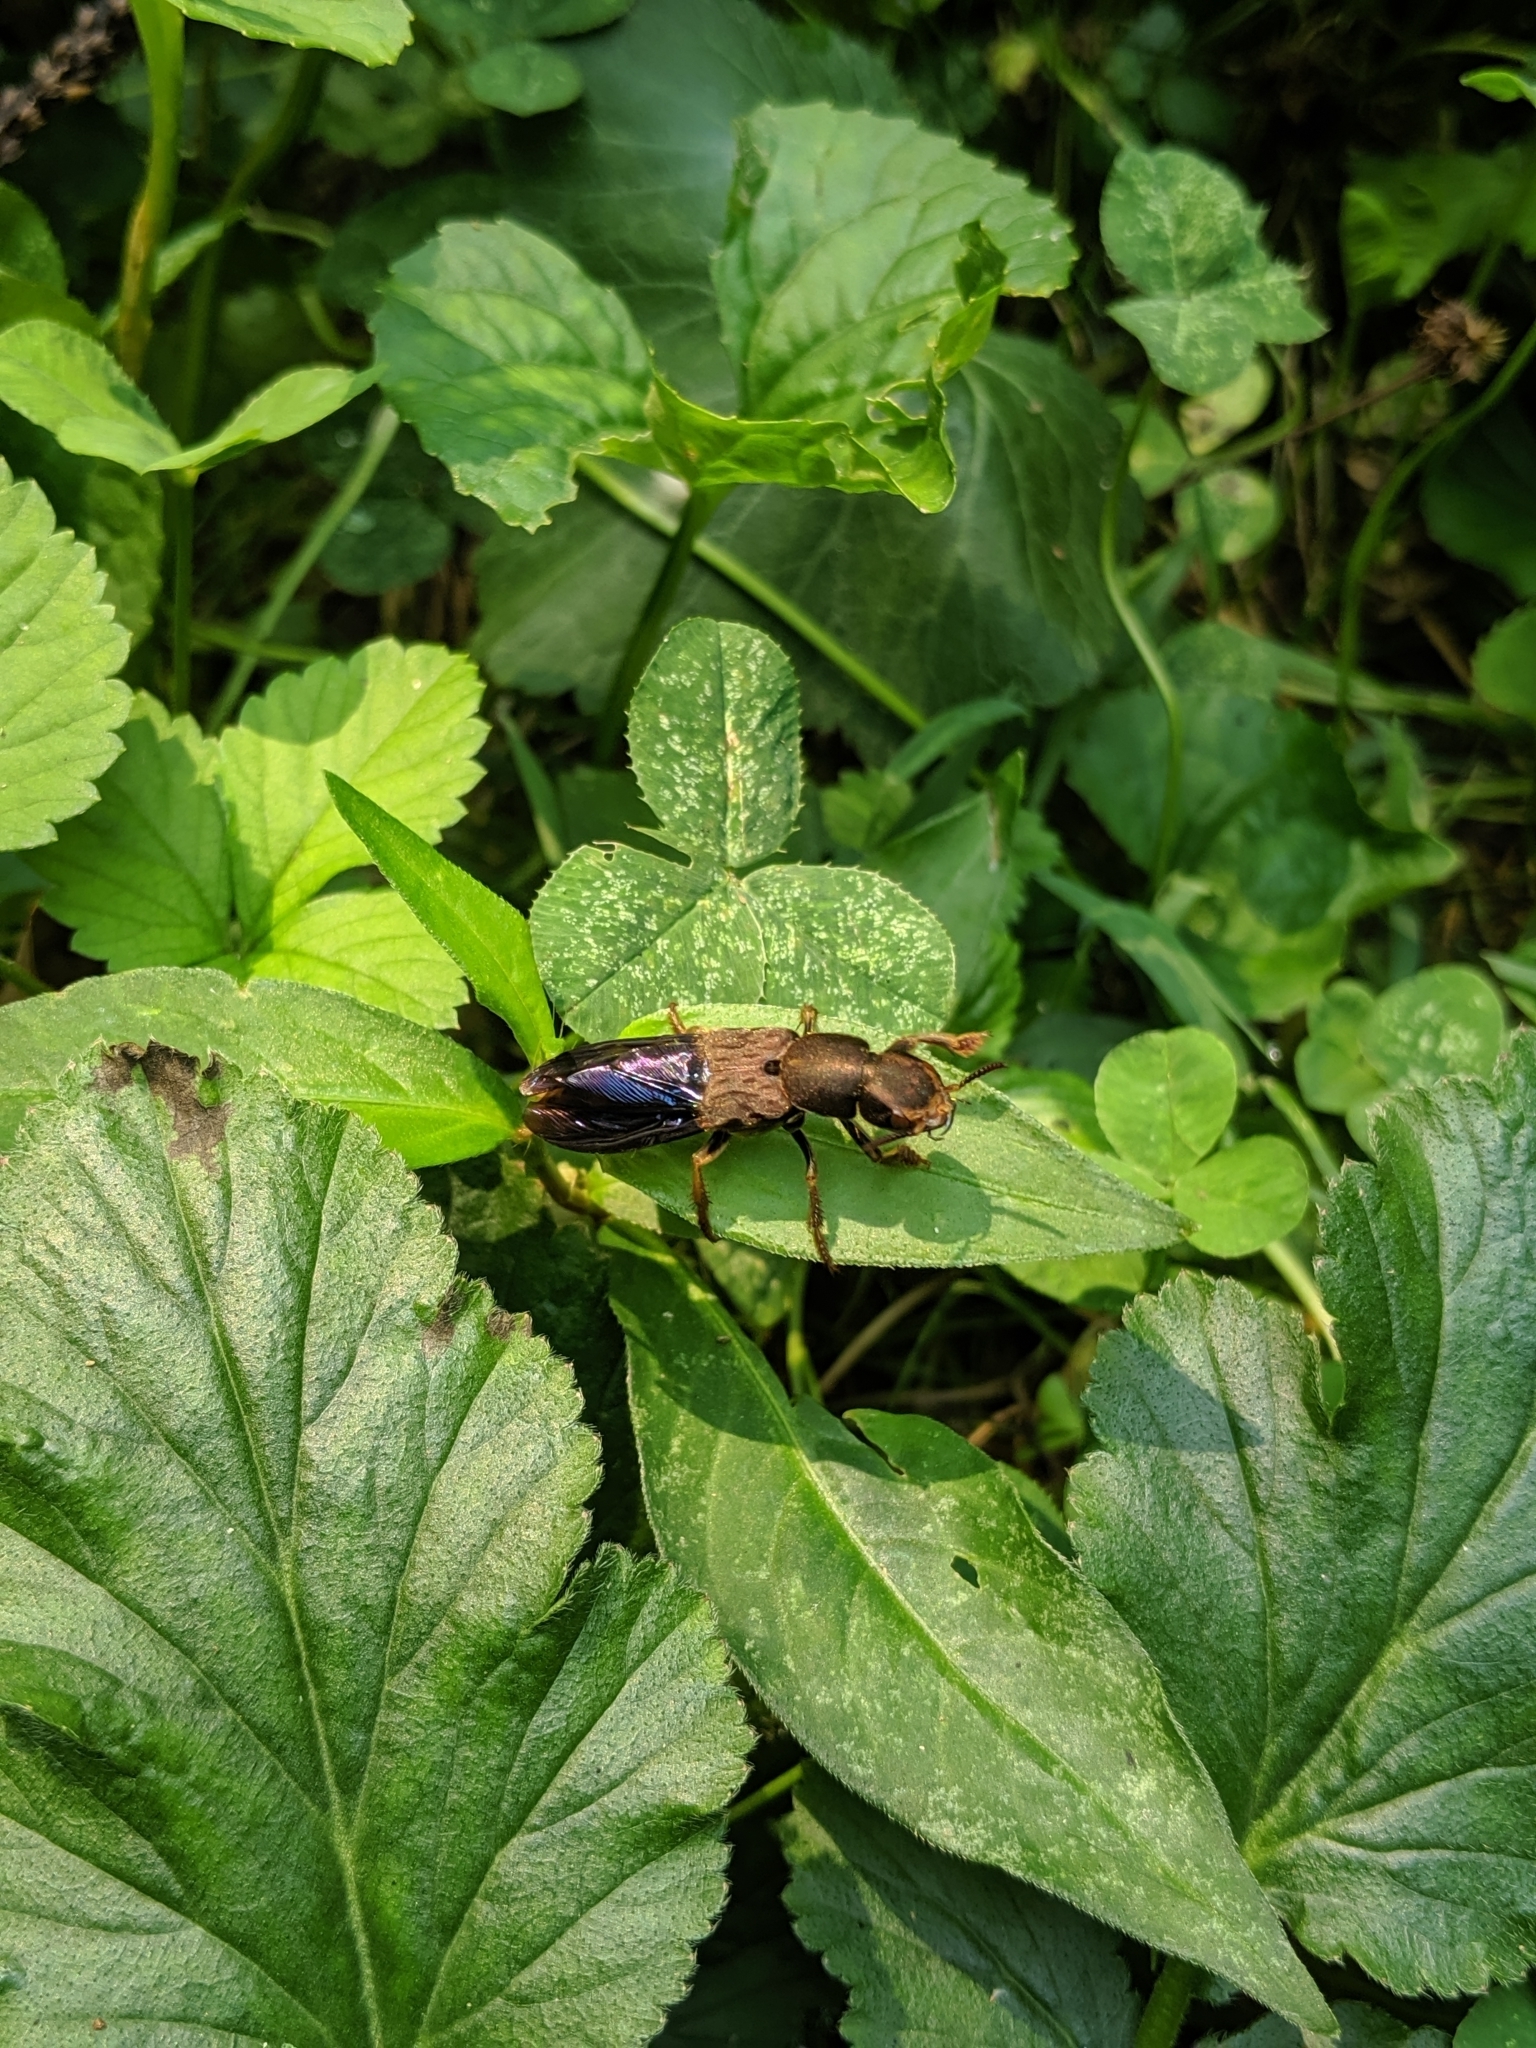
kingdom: Animalia
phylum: Arthropoda
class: Insecta
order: Coleoptera
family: Staphylinidae
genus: Platydracus
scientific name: Platydracus maculosus
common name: Brown rove beetle
